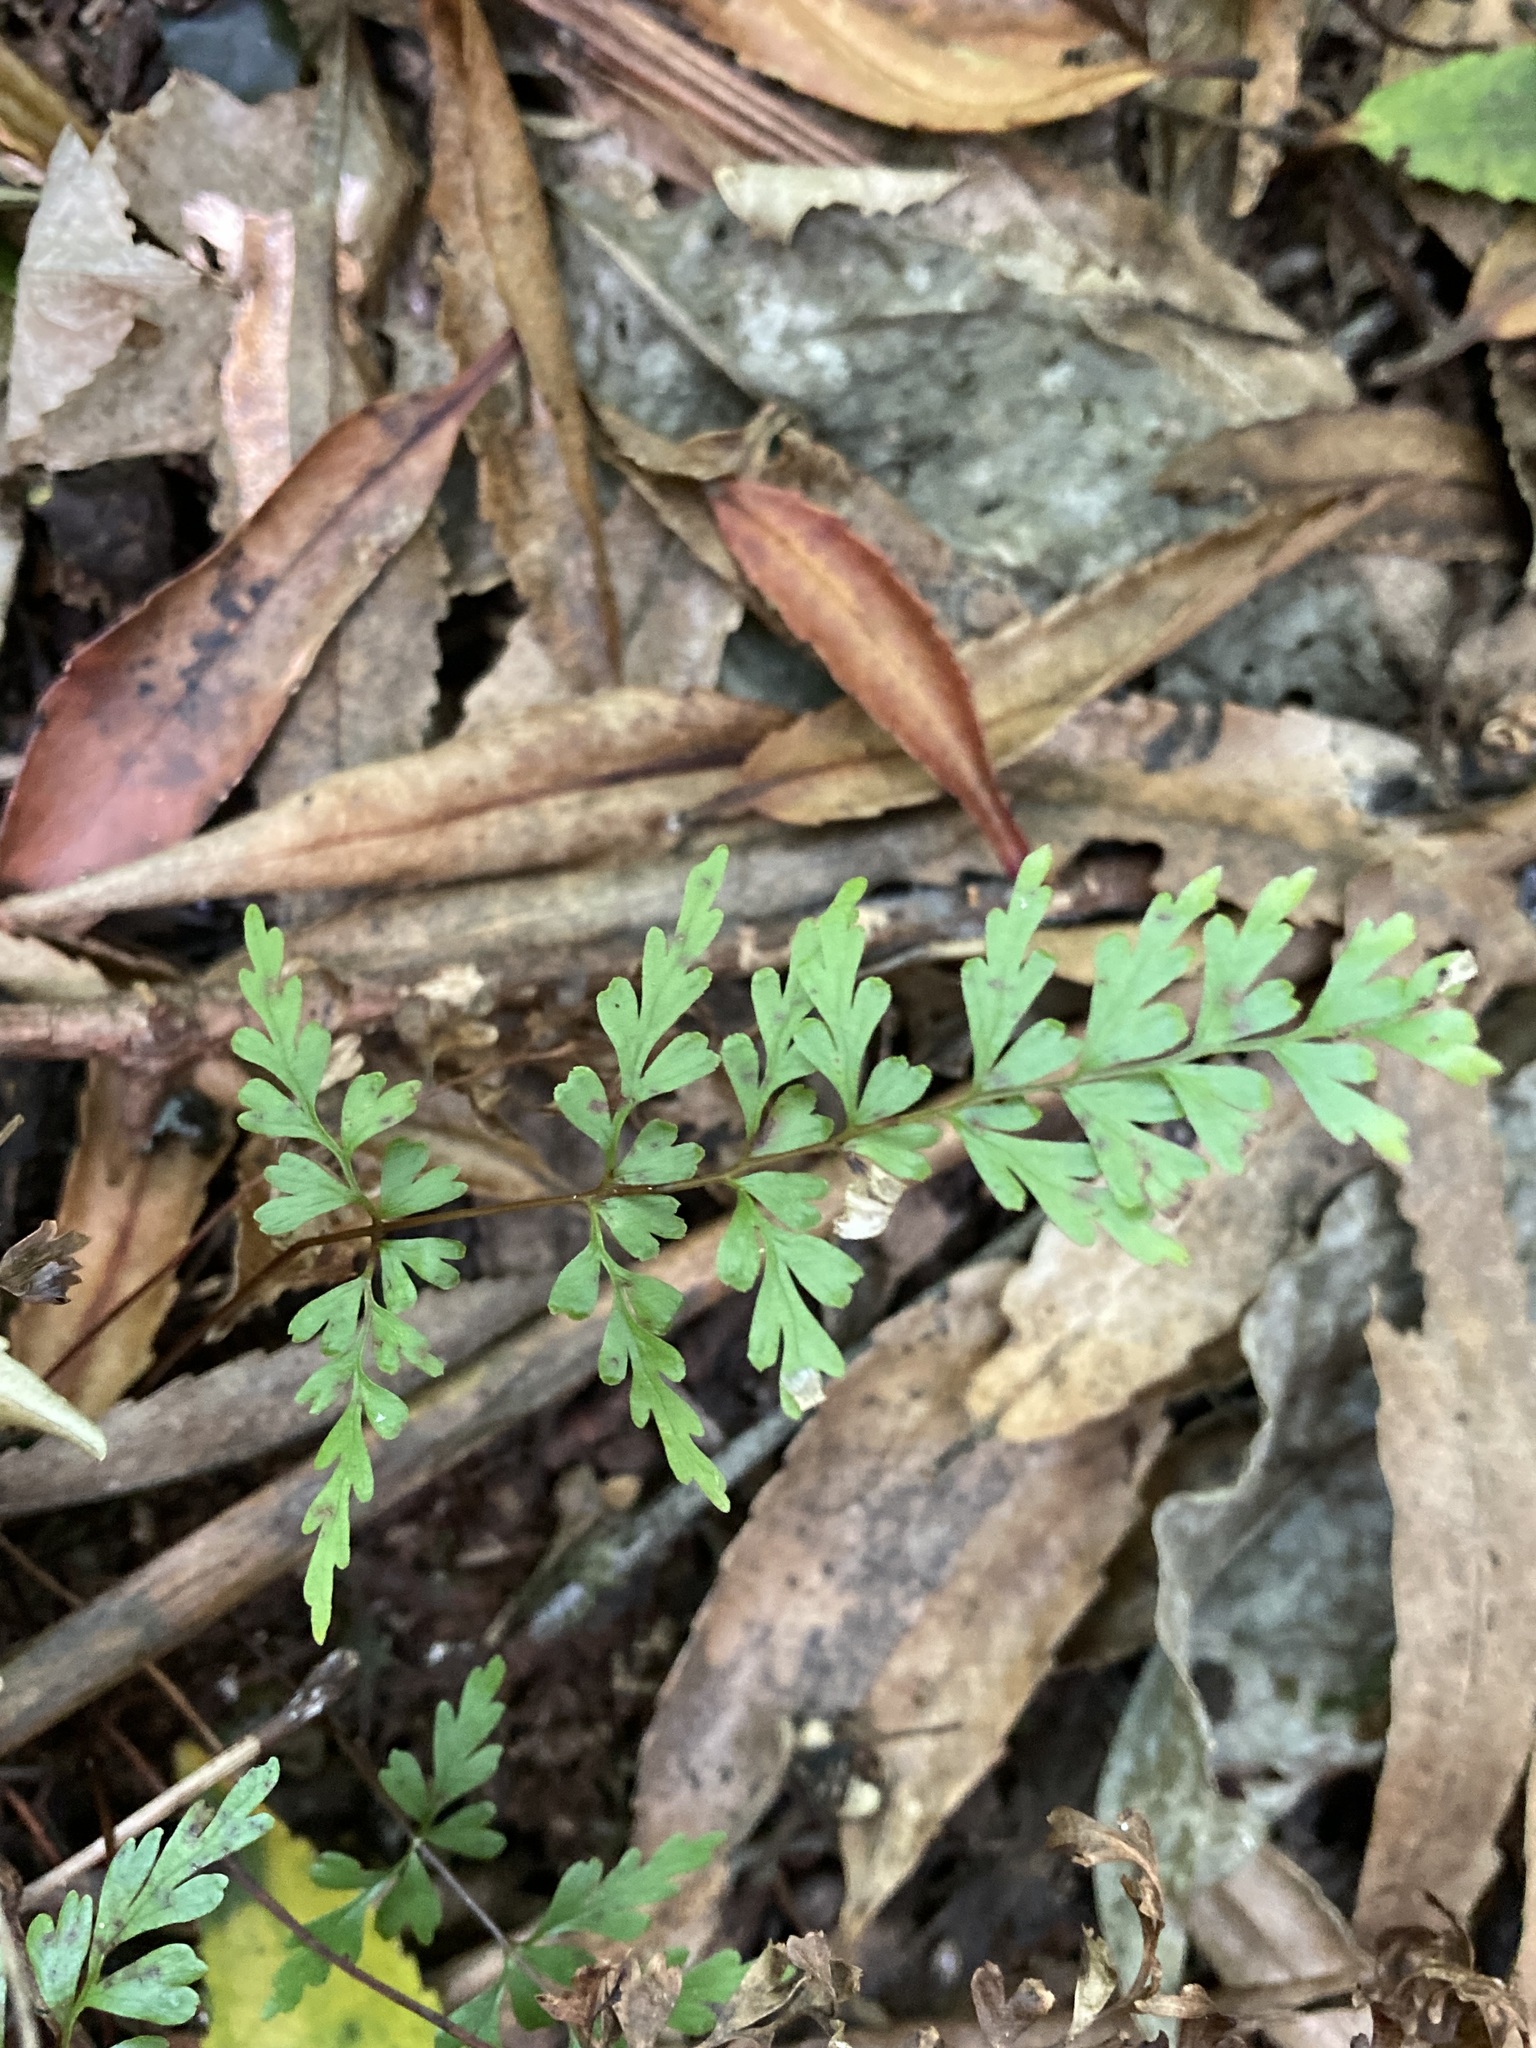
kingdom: Plantae
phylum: Tracheophyta
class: Polypodiopsida
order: Polypodiales
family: Lindsaeaceae
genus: Lindsaea
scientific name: Lindsaea trichomanoides
